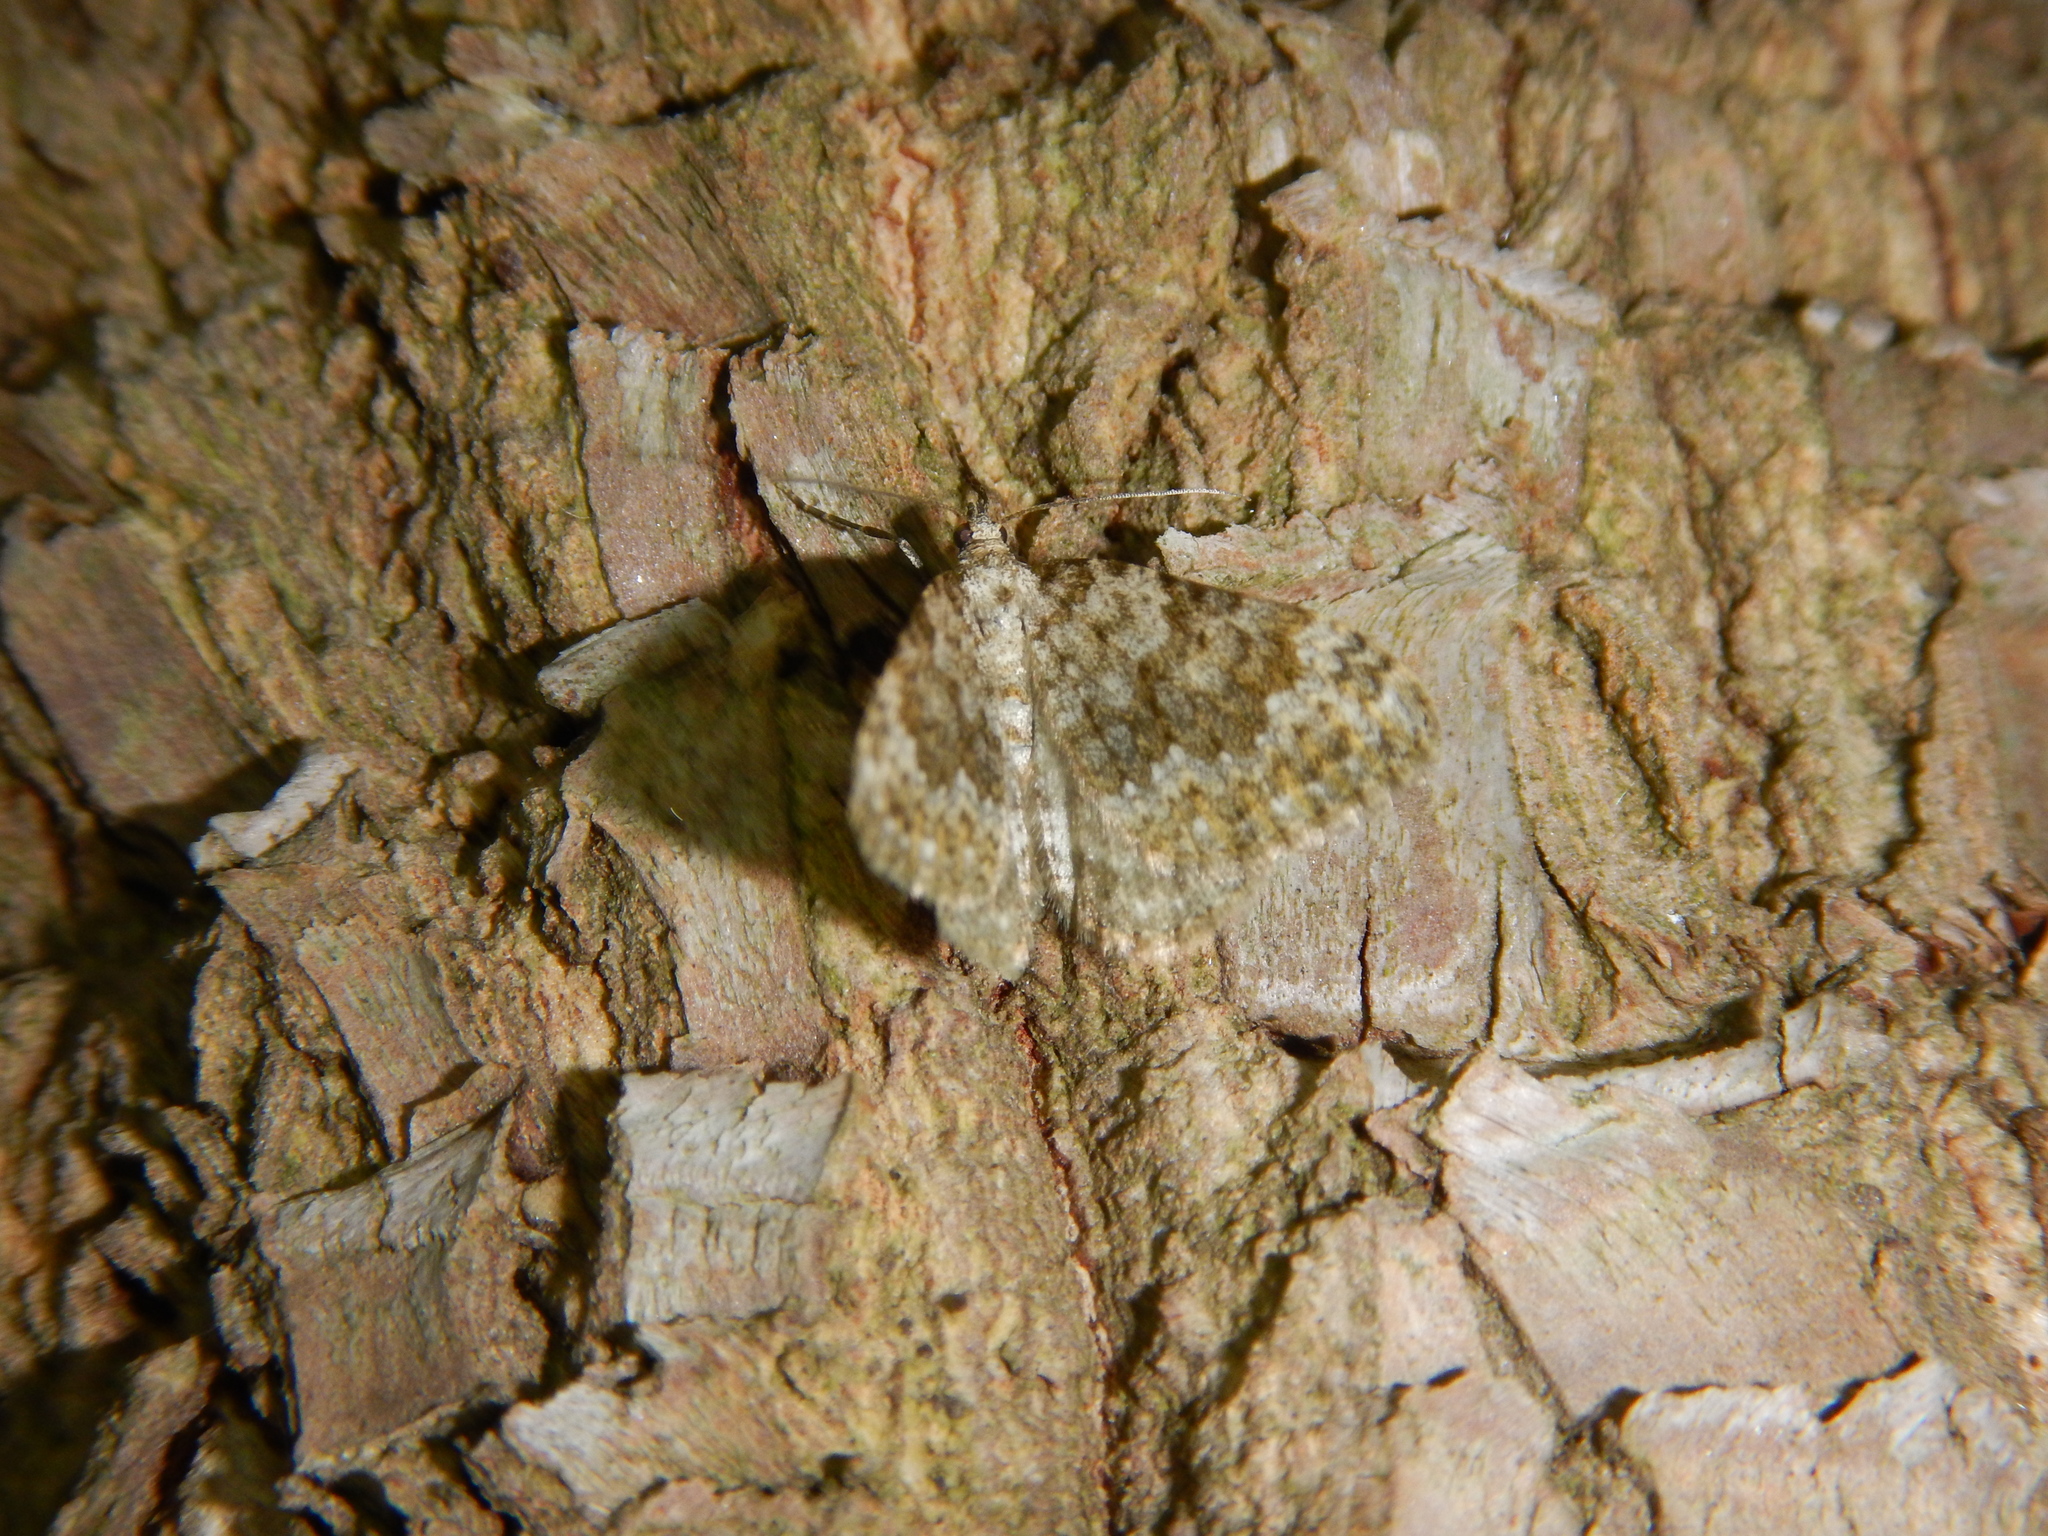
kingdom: Animalia
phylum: Arthropoda
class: Insecta
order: Lepidoptera
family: Geometridae
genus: Nebula
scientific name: Nebula salicata
